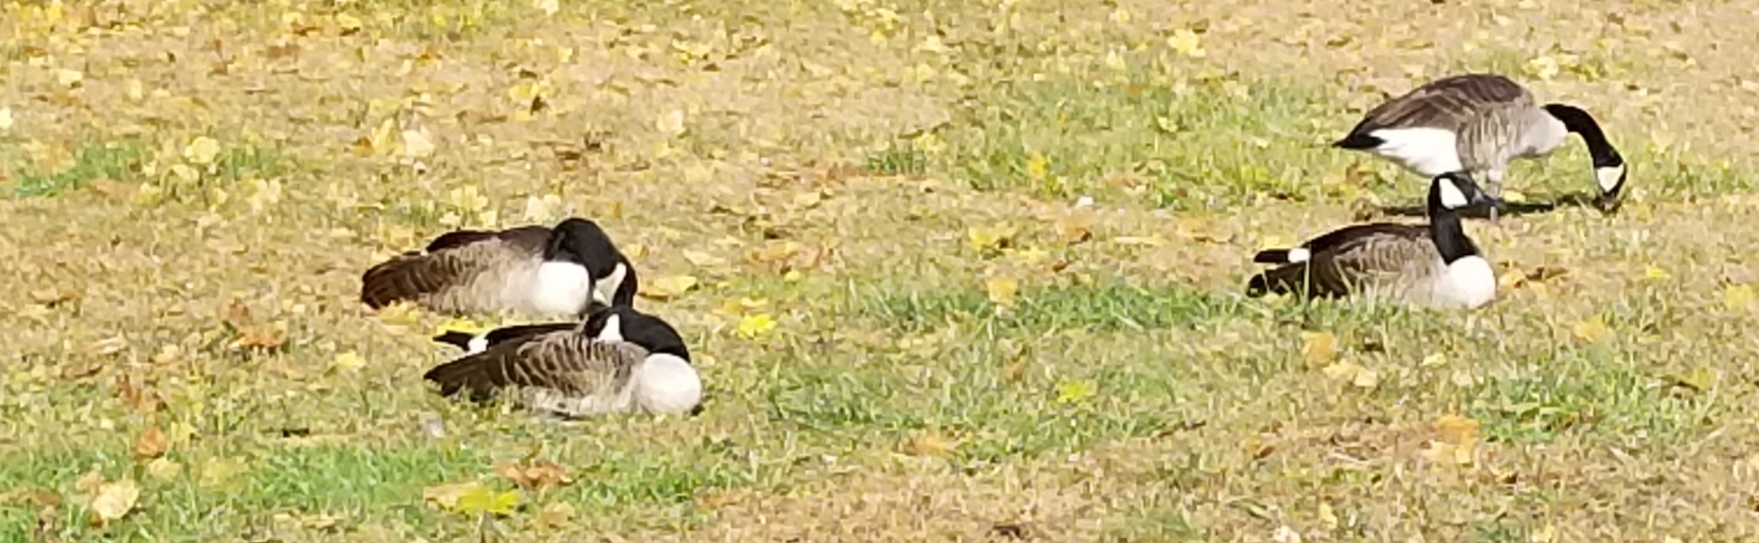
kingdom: Animalia
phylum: Chordata
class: Aves
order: Anseriformes
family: Anatidae
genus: Branta
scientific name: Branta canadensis
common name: Canada goose
